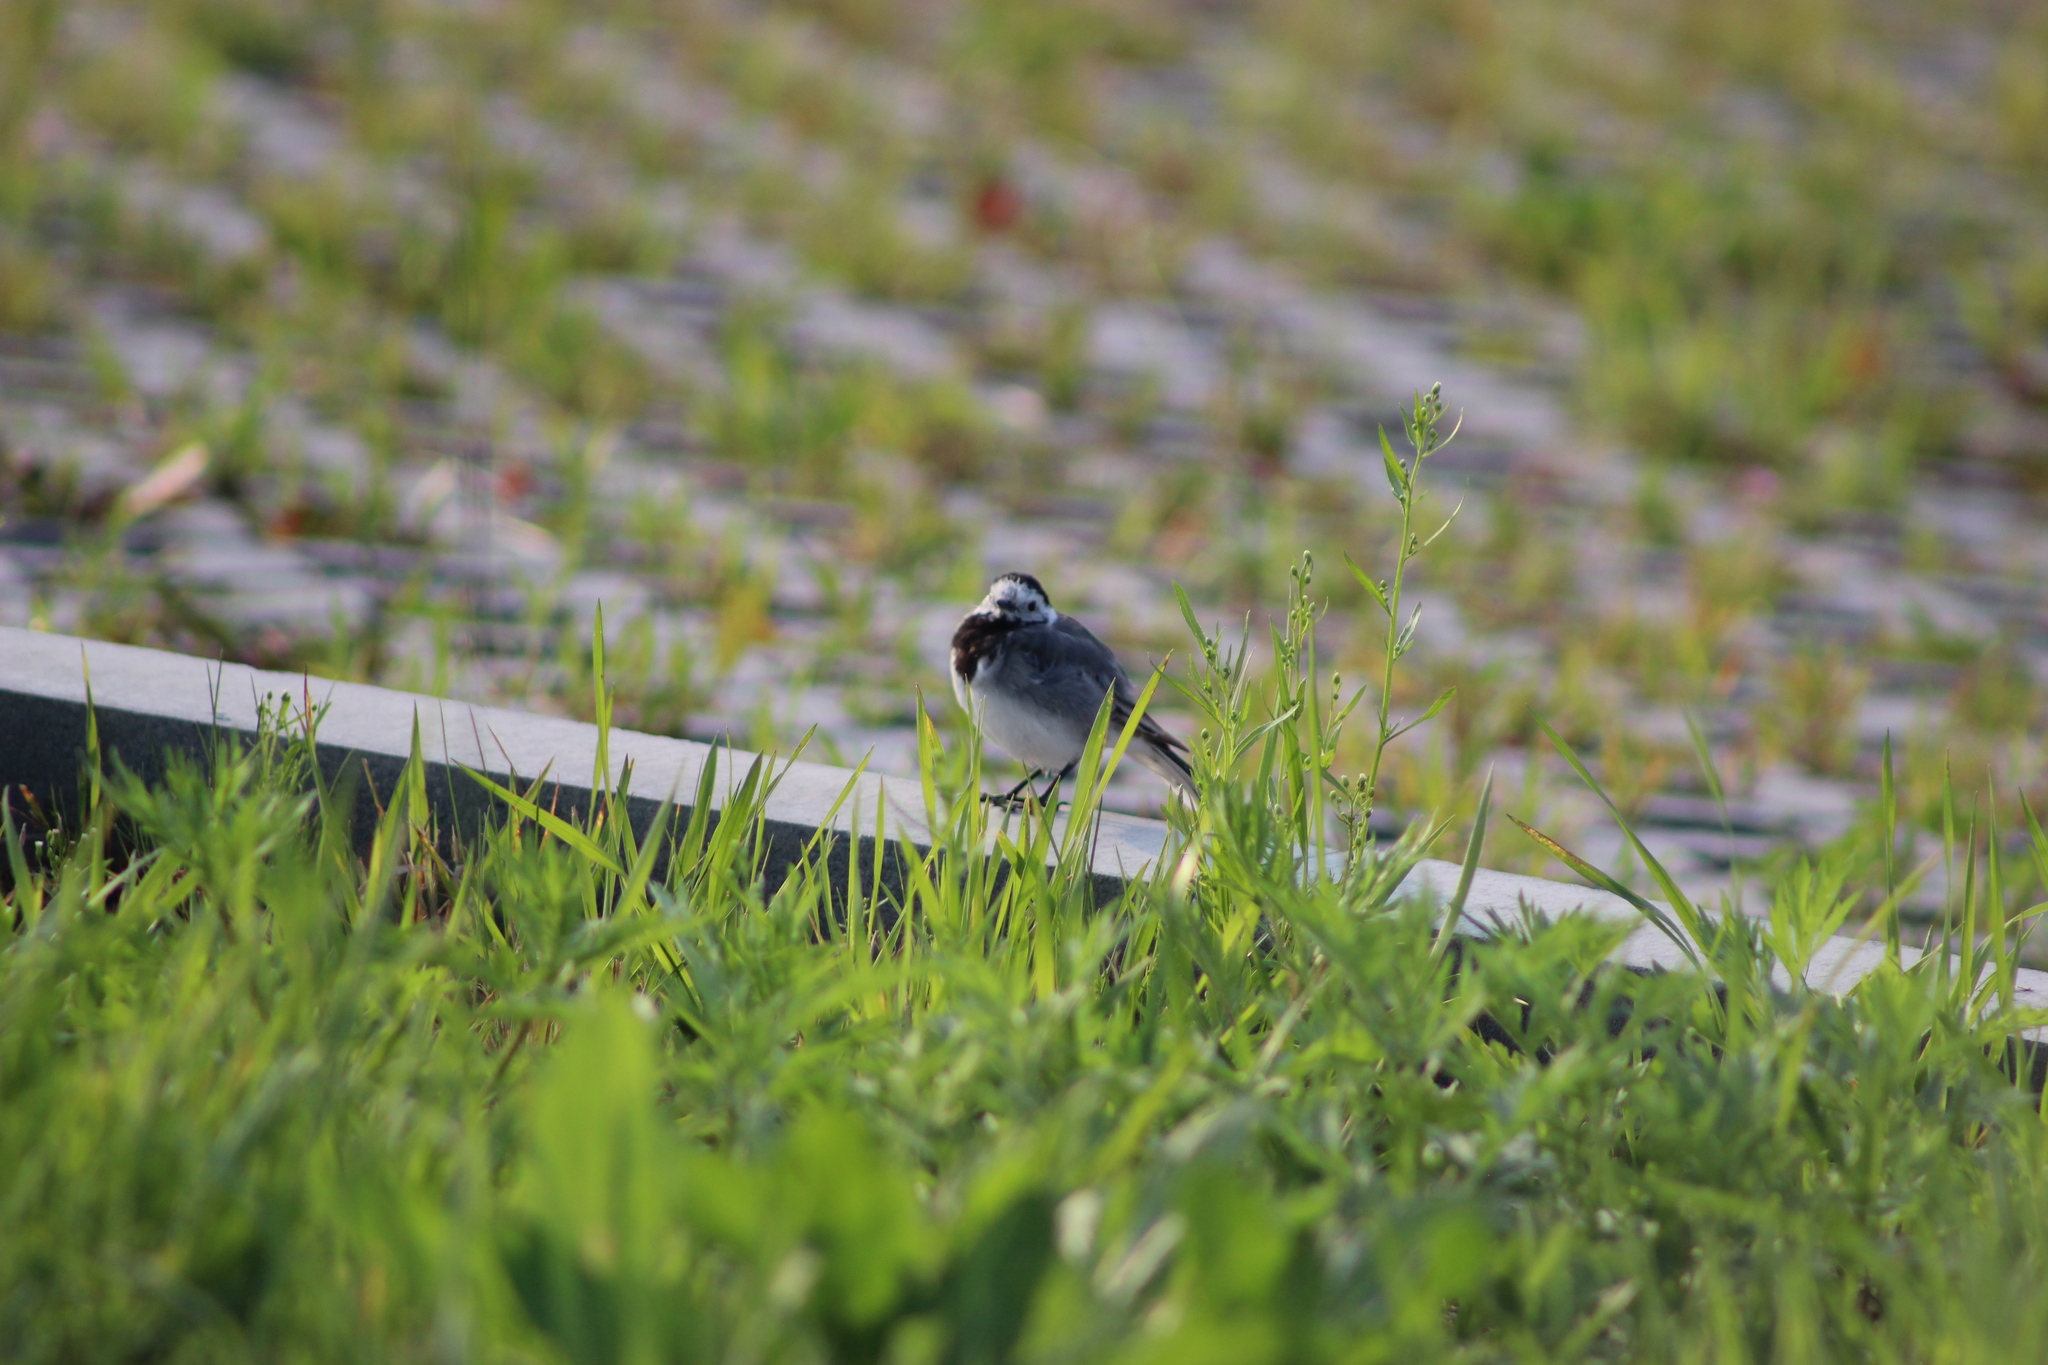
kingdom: Animalia
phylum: Chordata
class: Aves
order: Passeriformes
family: Motacillidae
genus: Motacilla
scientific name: Motacilla alba
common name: White wagtail
